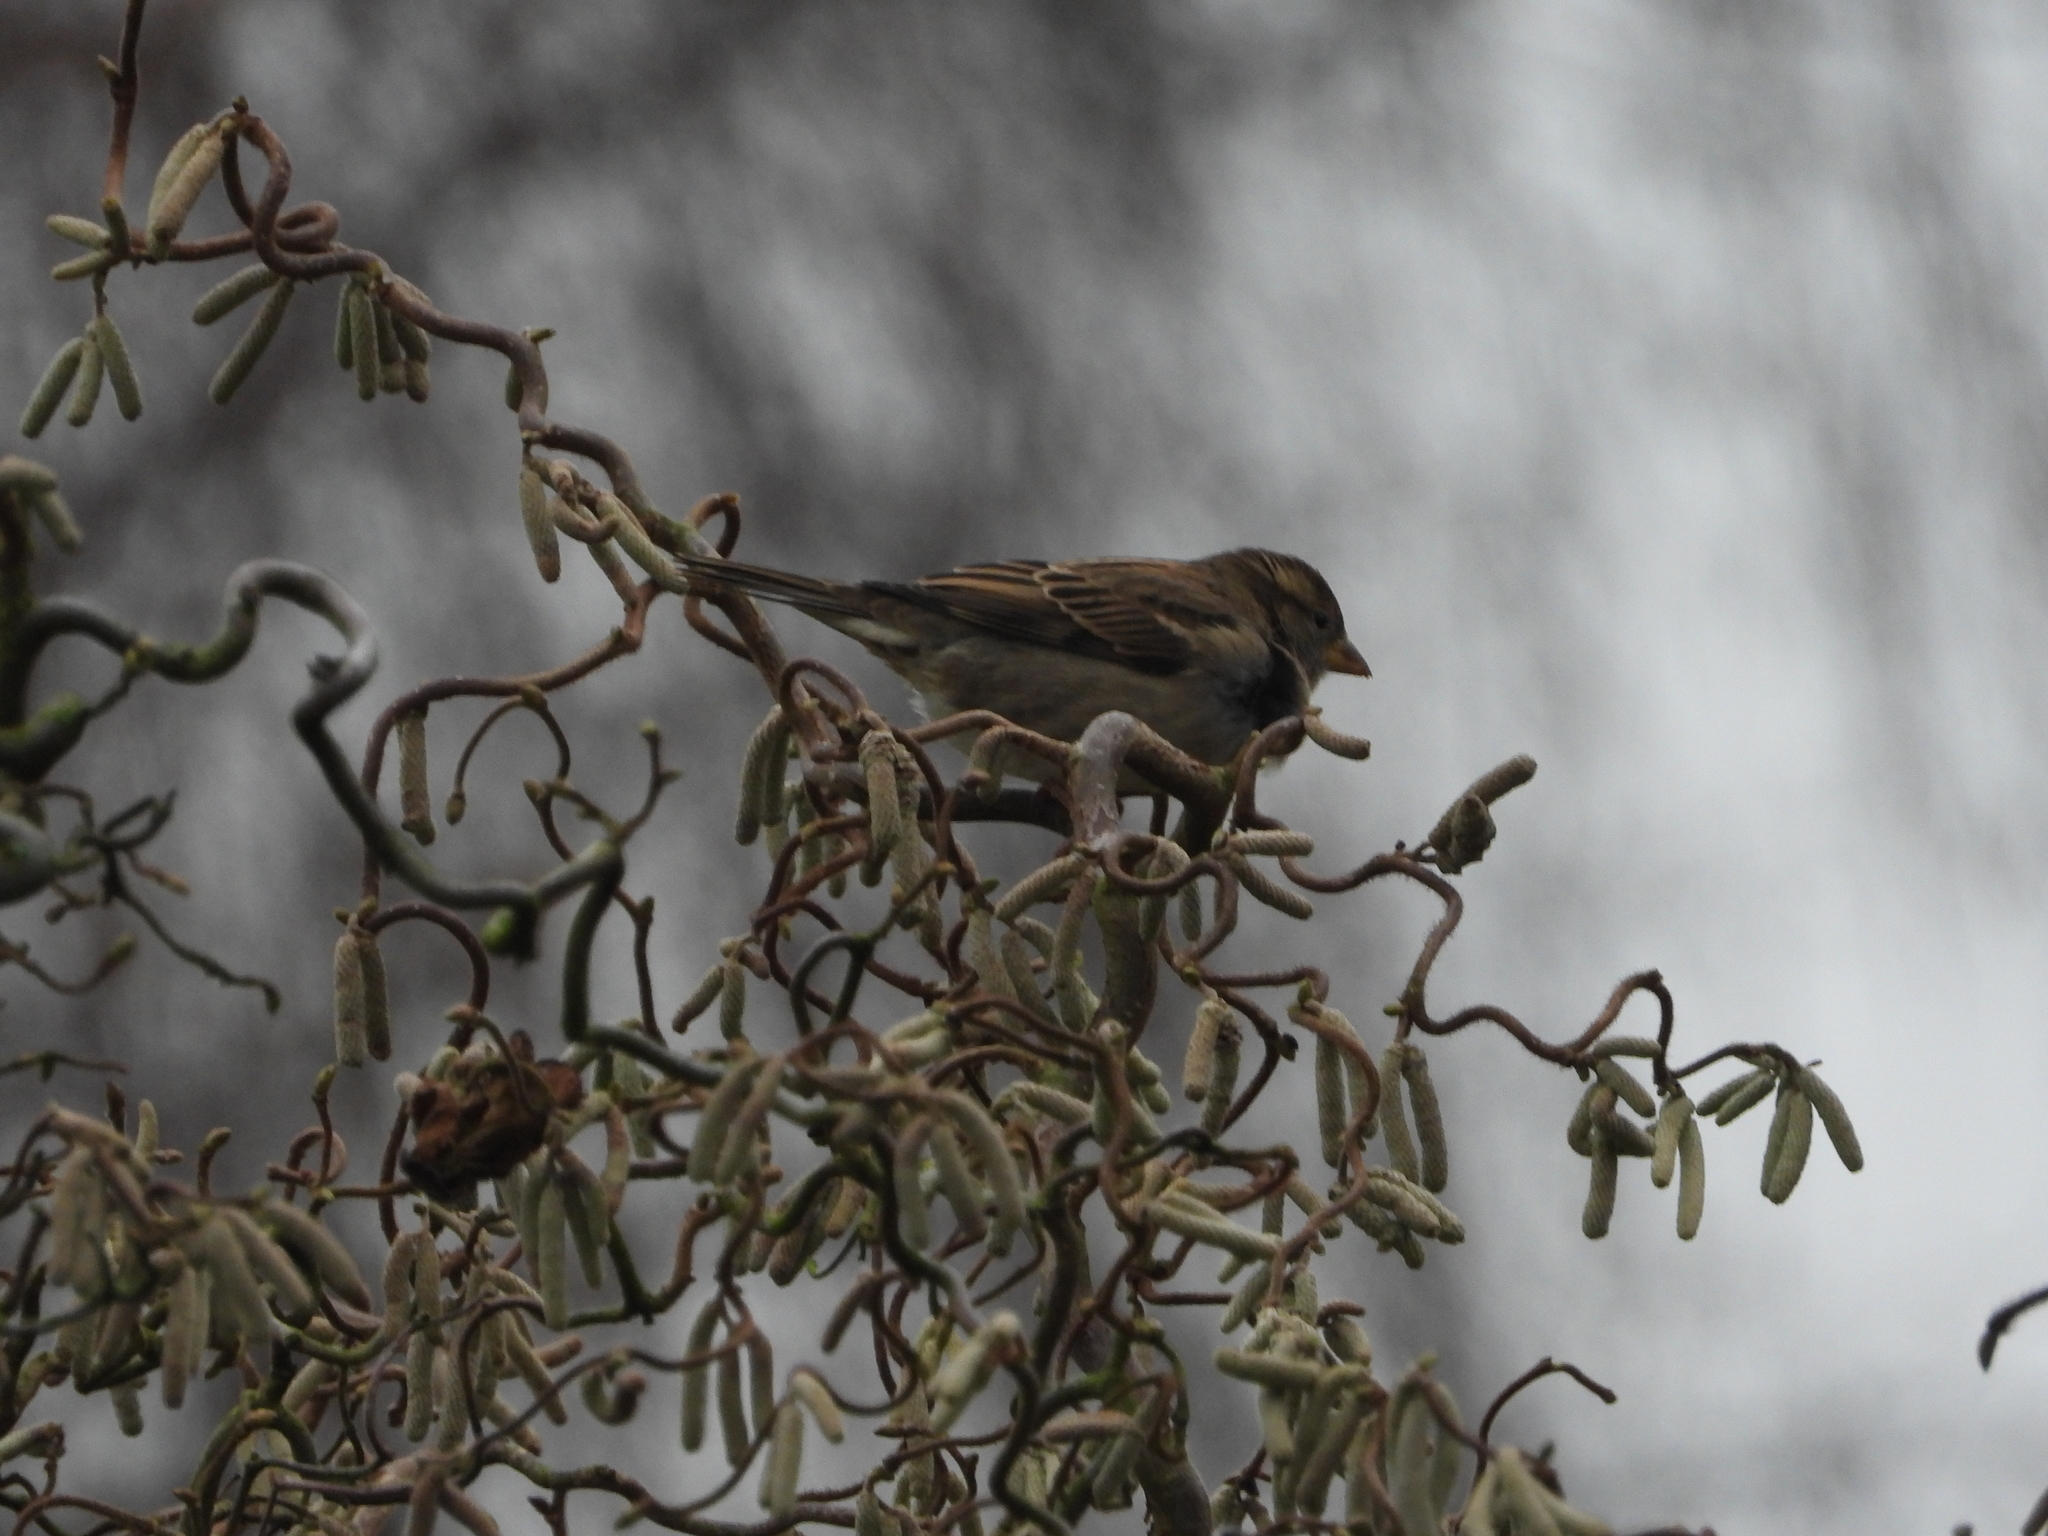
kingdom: Animalia
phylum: Chordata
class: Aves
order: Passeriformes
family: Passeridae
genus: Passer
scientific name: Passer domesticus
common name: House sparrow
